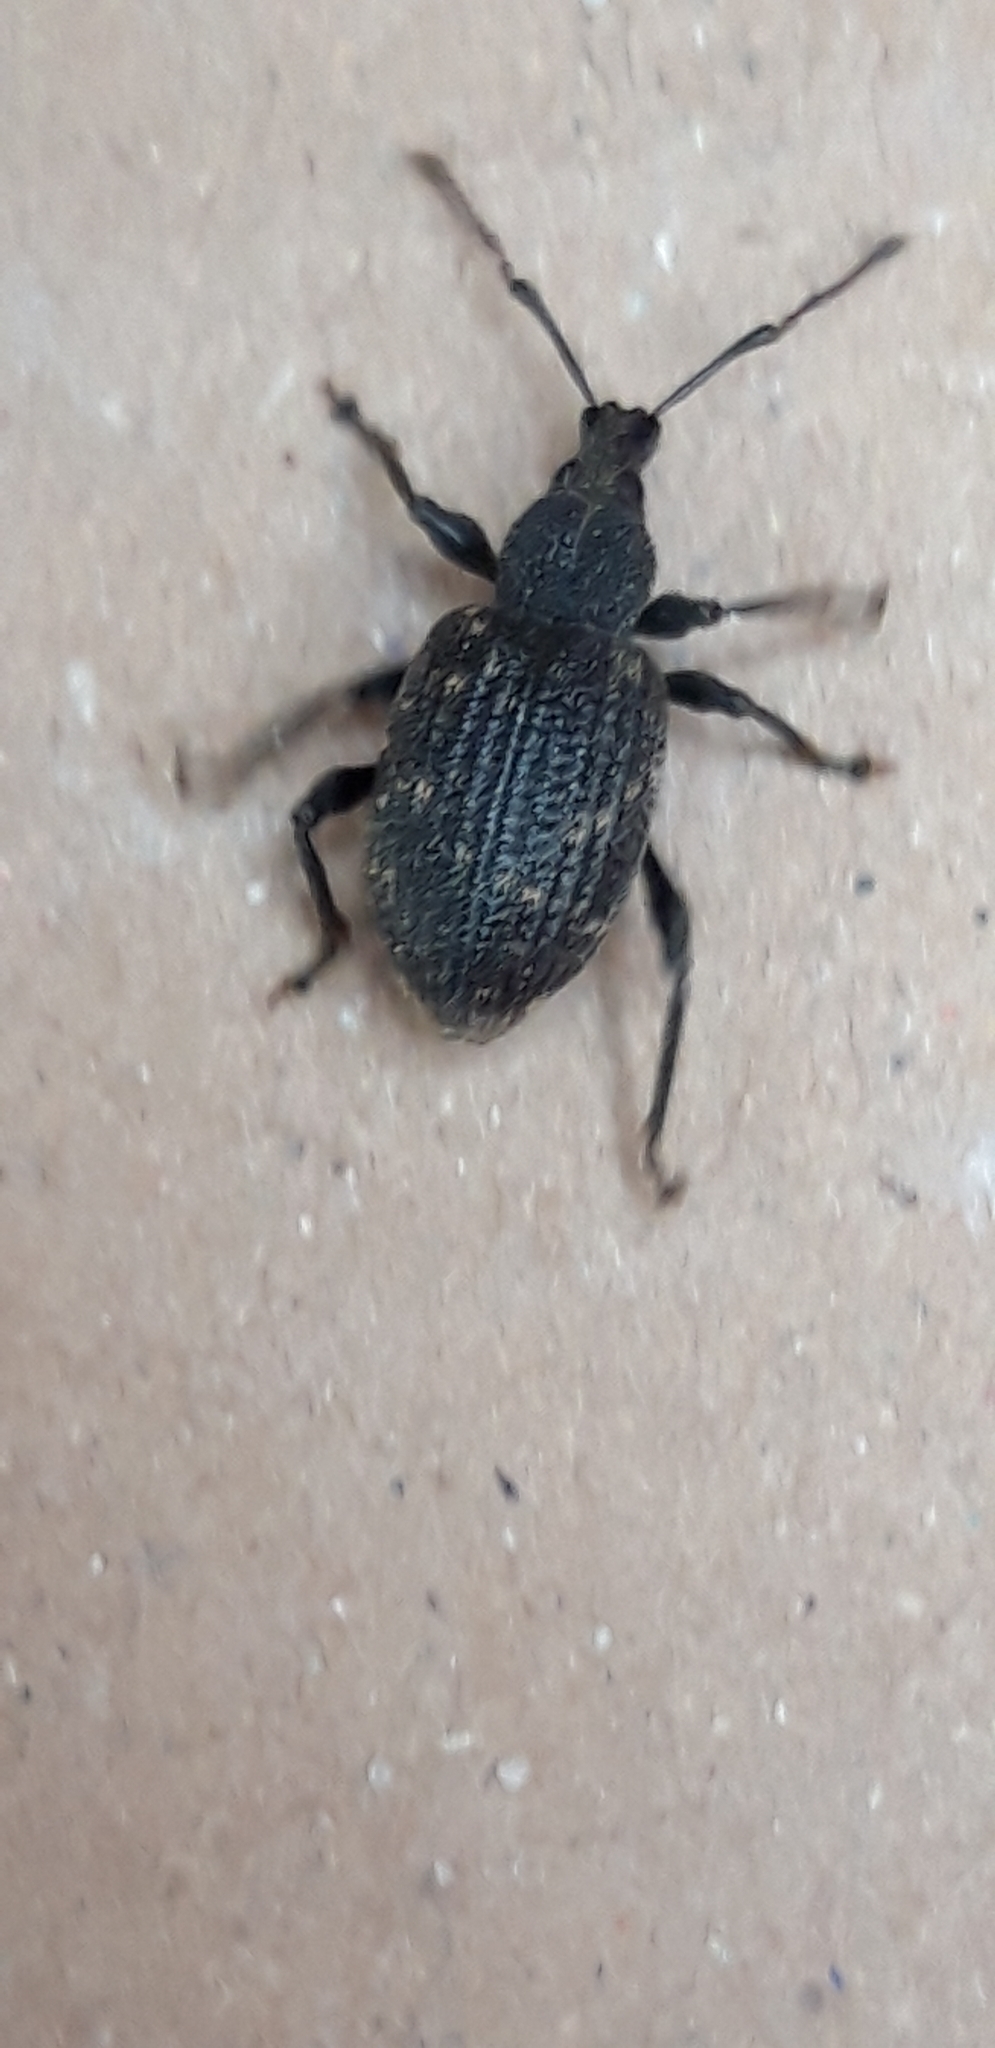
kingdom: Animalia
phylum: Arthropoda
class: Insecta
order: Coleoptera
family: Curculionidae
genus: Otiorhynchus
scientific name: Otiorhynchus sulcatus
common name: Black vine weevil
